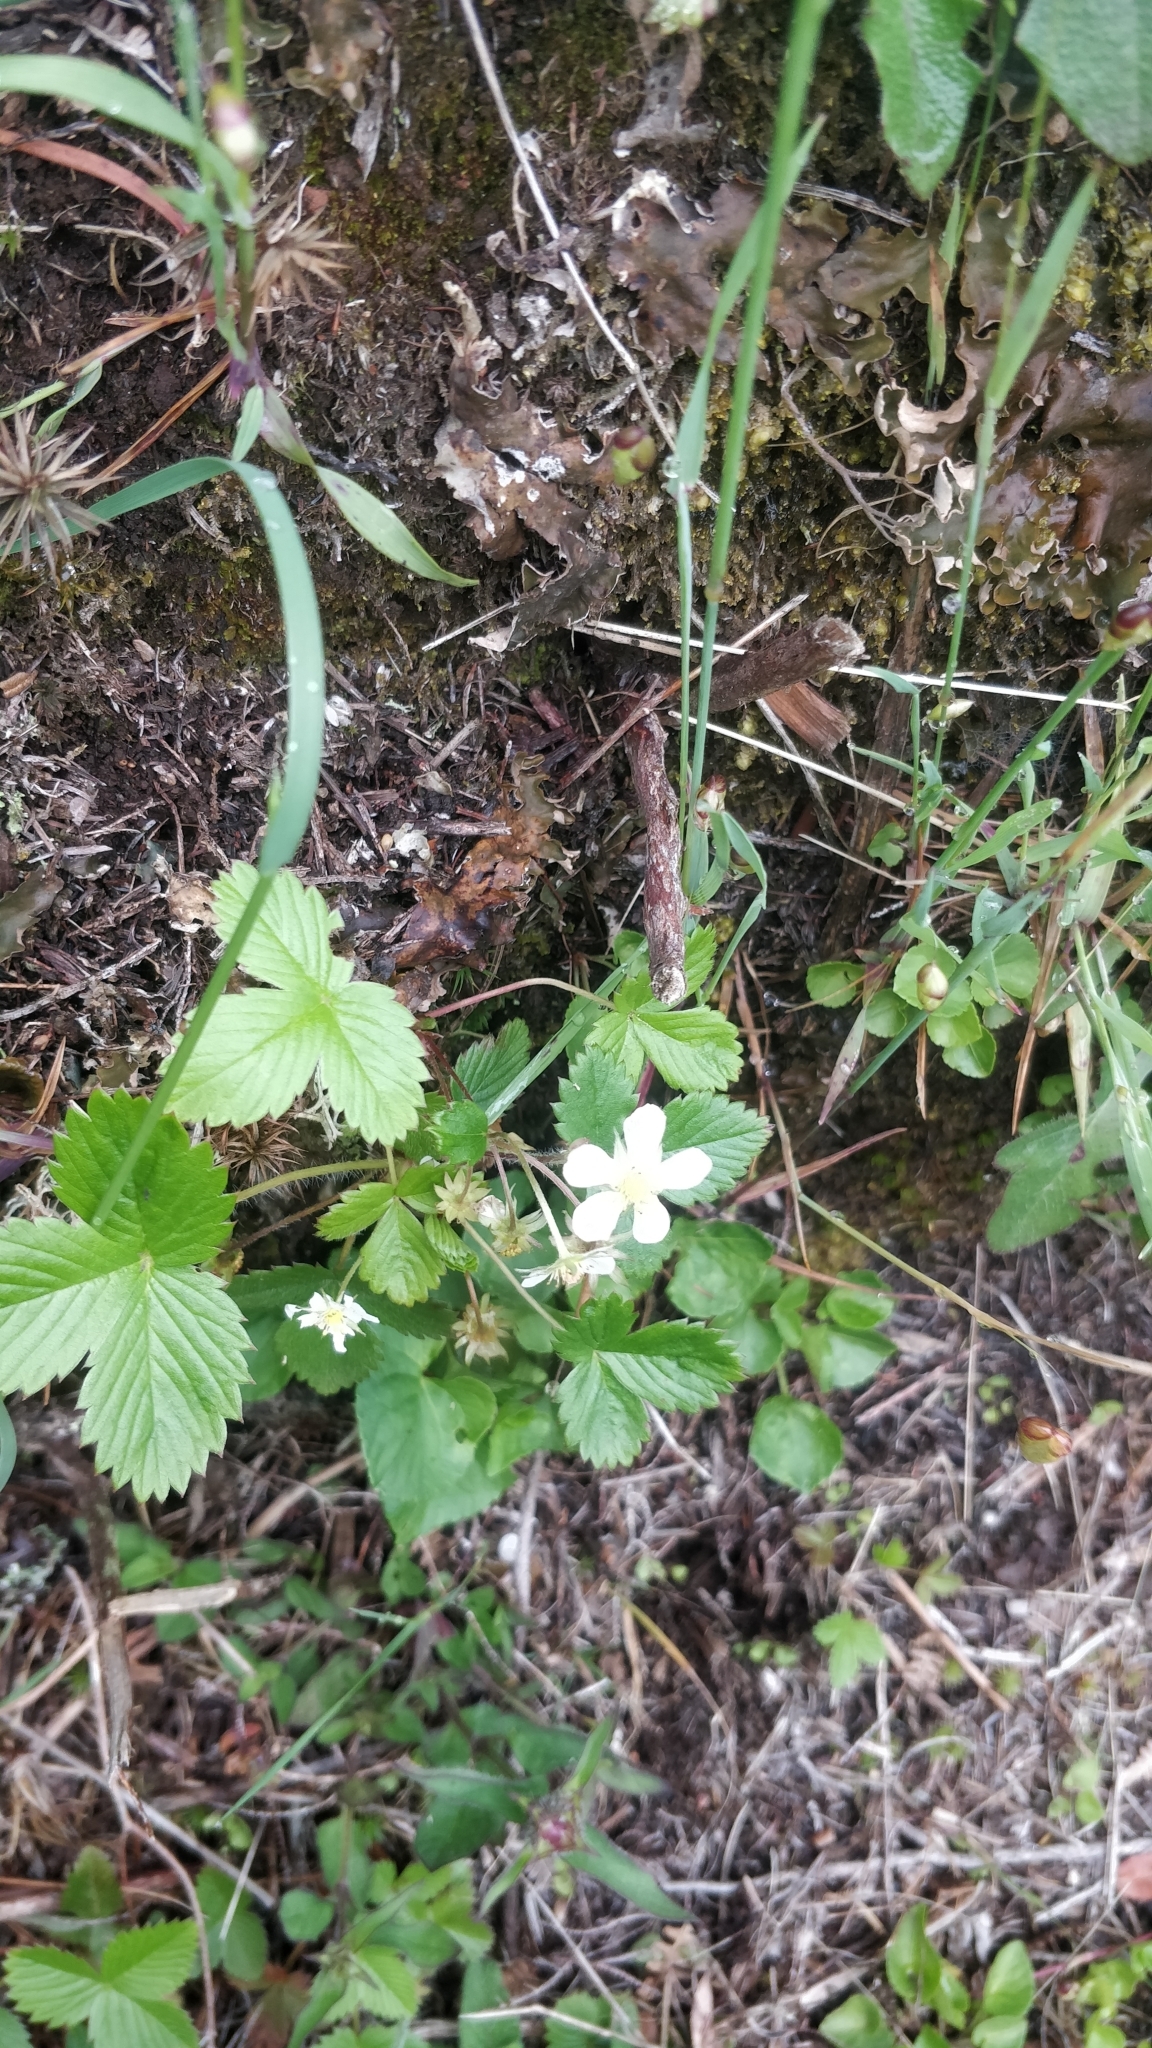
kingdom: Plantae
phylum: Tracheophyta
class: Magnoliopsida
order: Rosales
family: Rosaceae
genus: Fragaria
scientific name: Fragaria vesca
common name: Wild strawberry
